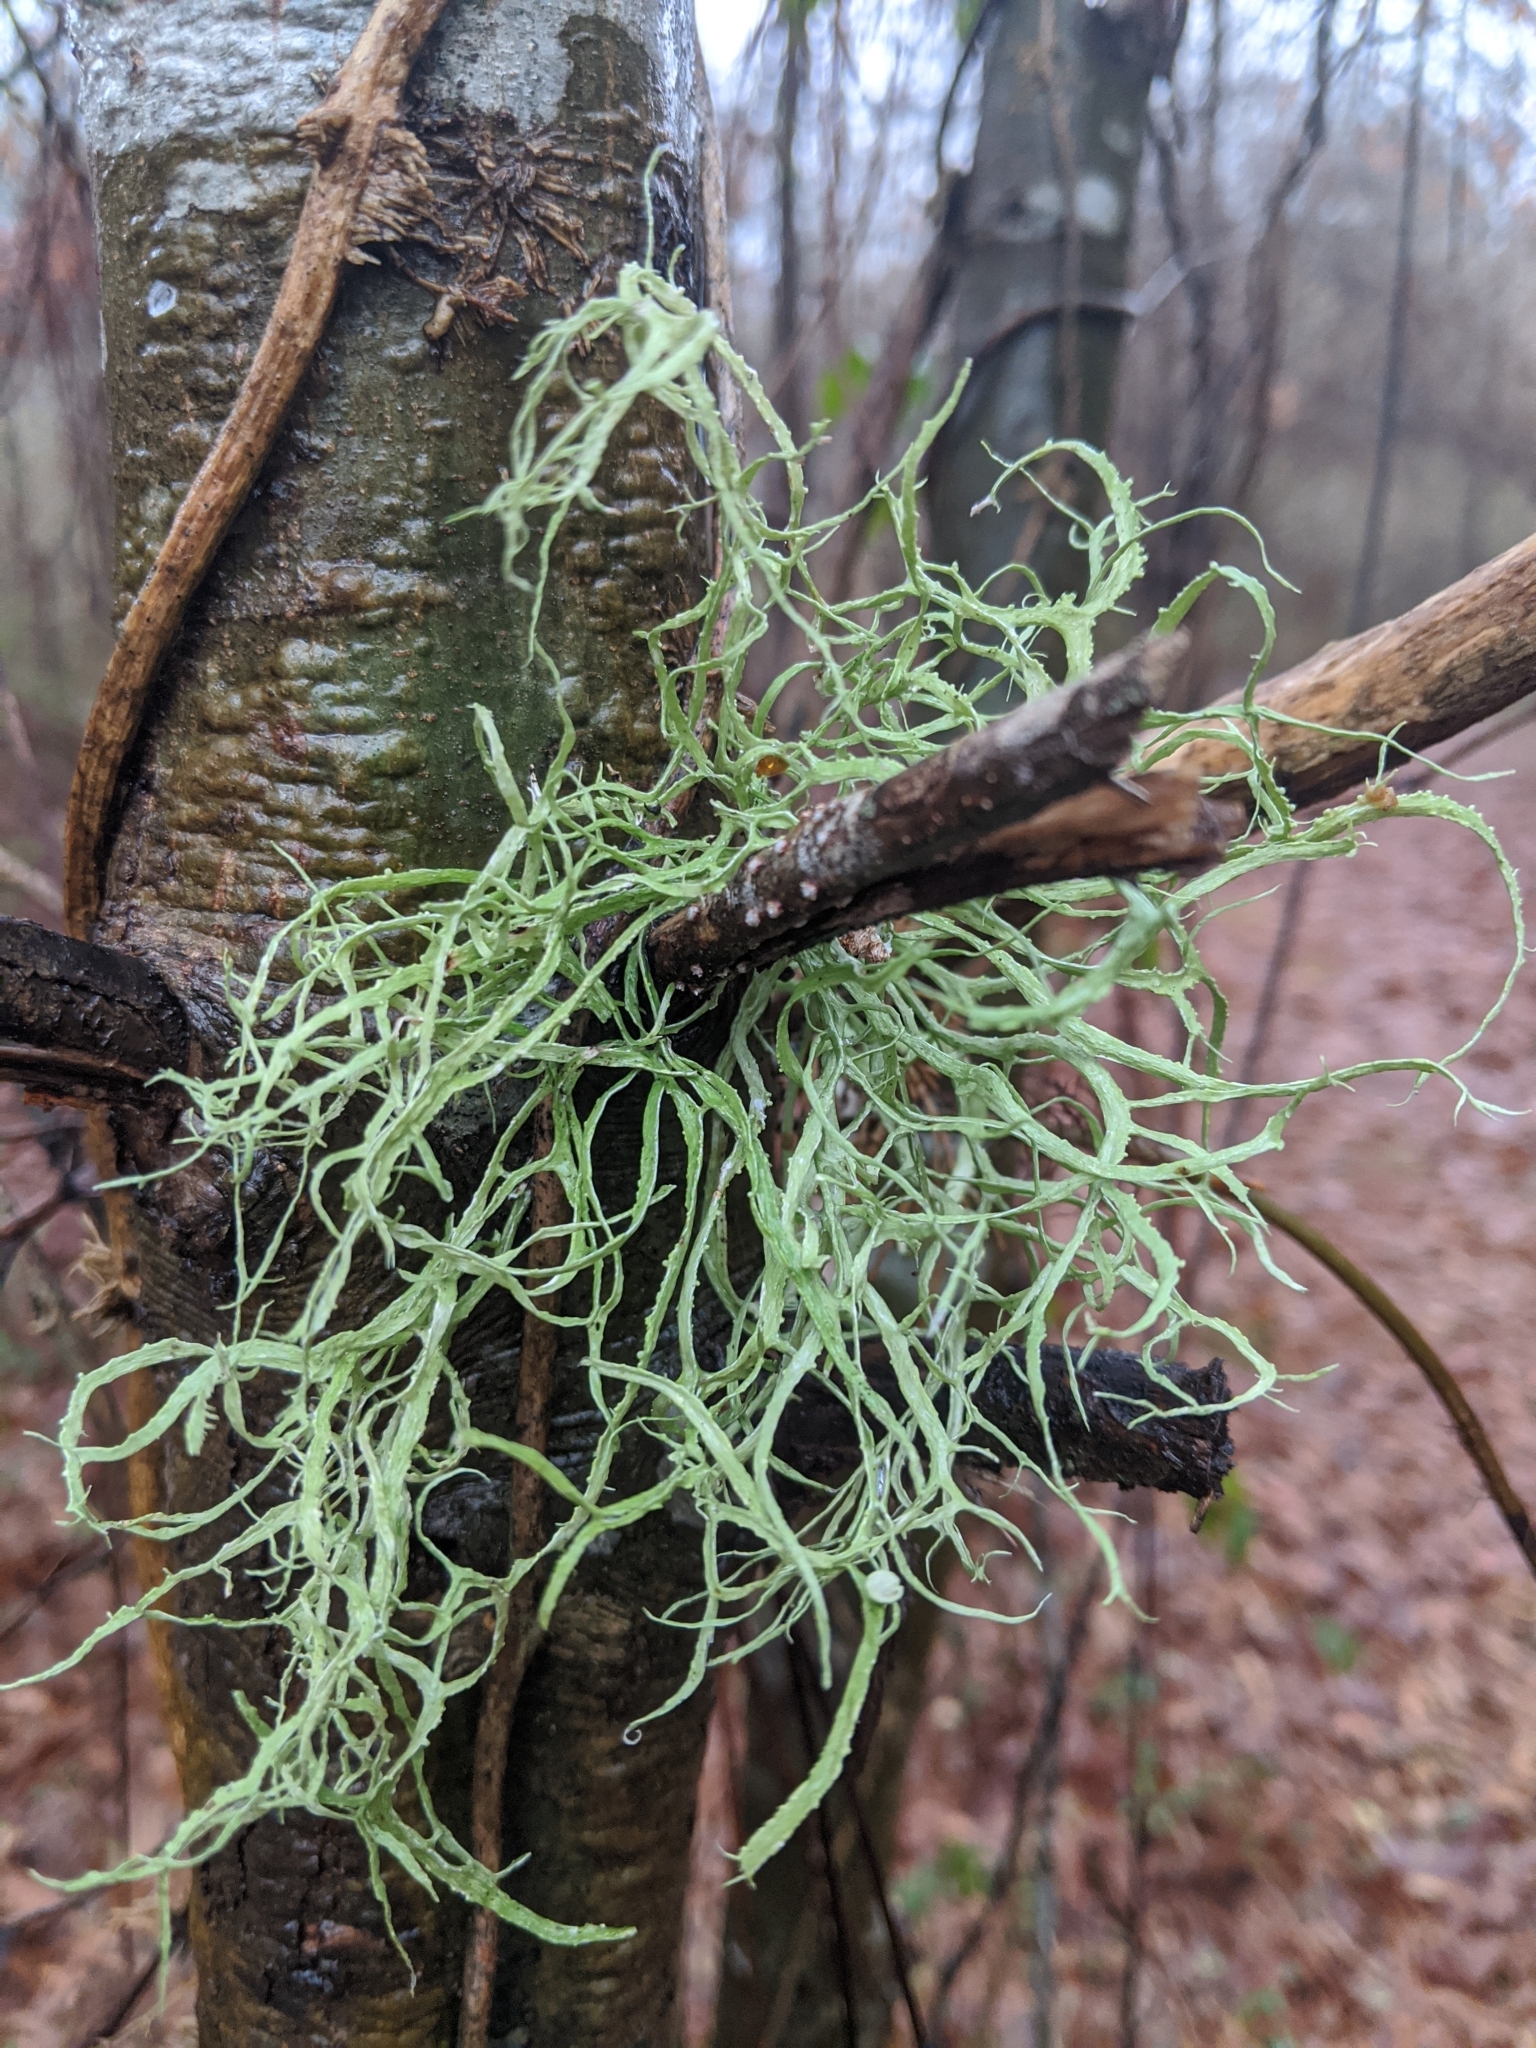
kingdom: Fungi
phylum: Ascomycota
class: Lecanoromycetes
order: Lecanorales
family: Ramalinaceae
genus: Ramalina
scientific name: Ramalina stenospora
